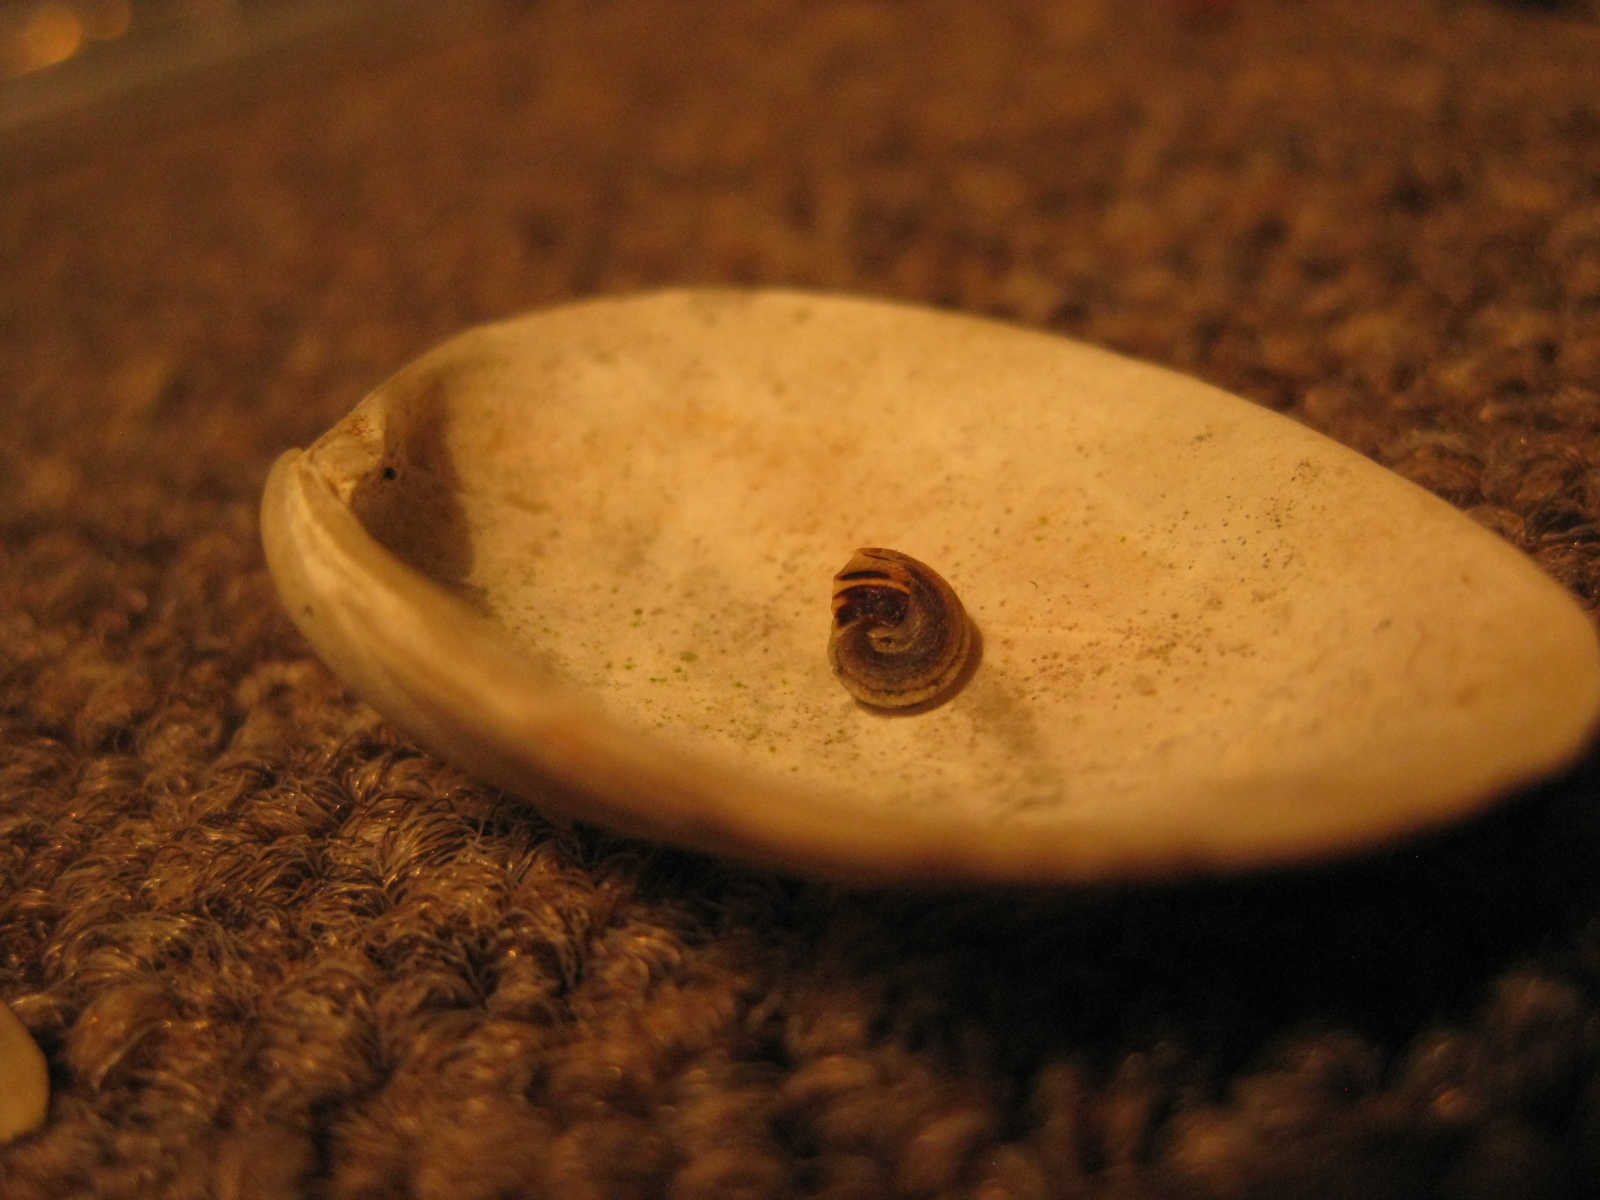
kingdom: Animalia
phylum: Mollusca
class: Gastropoda
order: Littorinimorpha
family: Littorinidae
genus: Risellopsis
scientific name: Risellopsis varia
